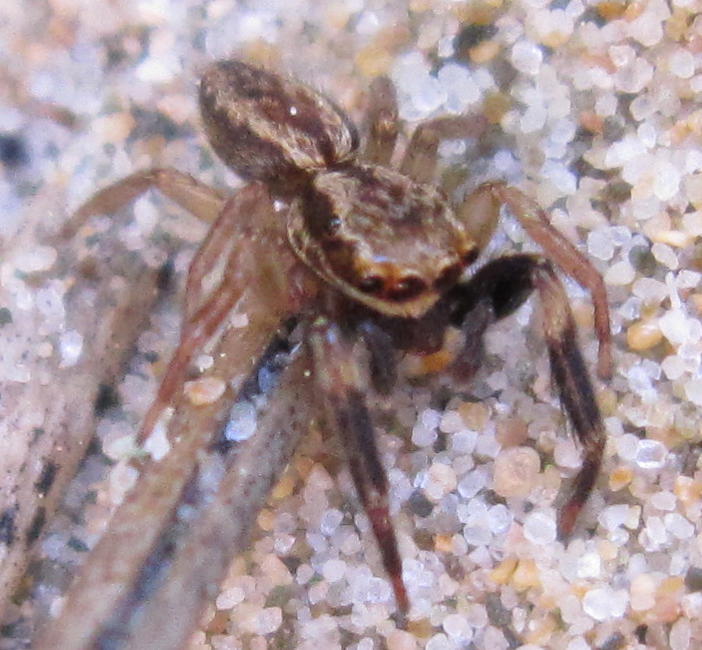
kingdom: Animalia
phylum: Arthropoda
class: Arachnida
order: Araneae
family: Salticidae
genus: Trite
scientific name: Trite auricoma
